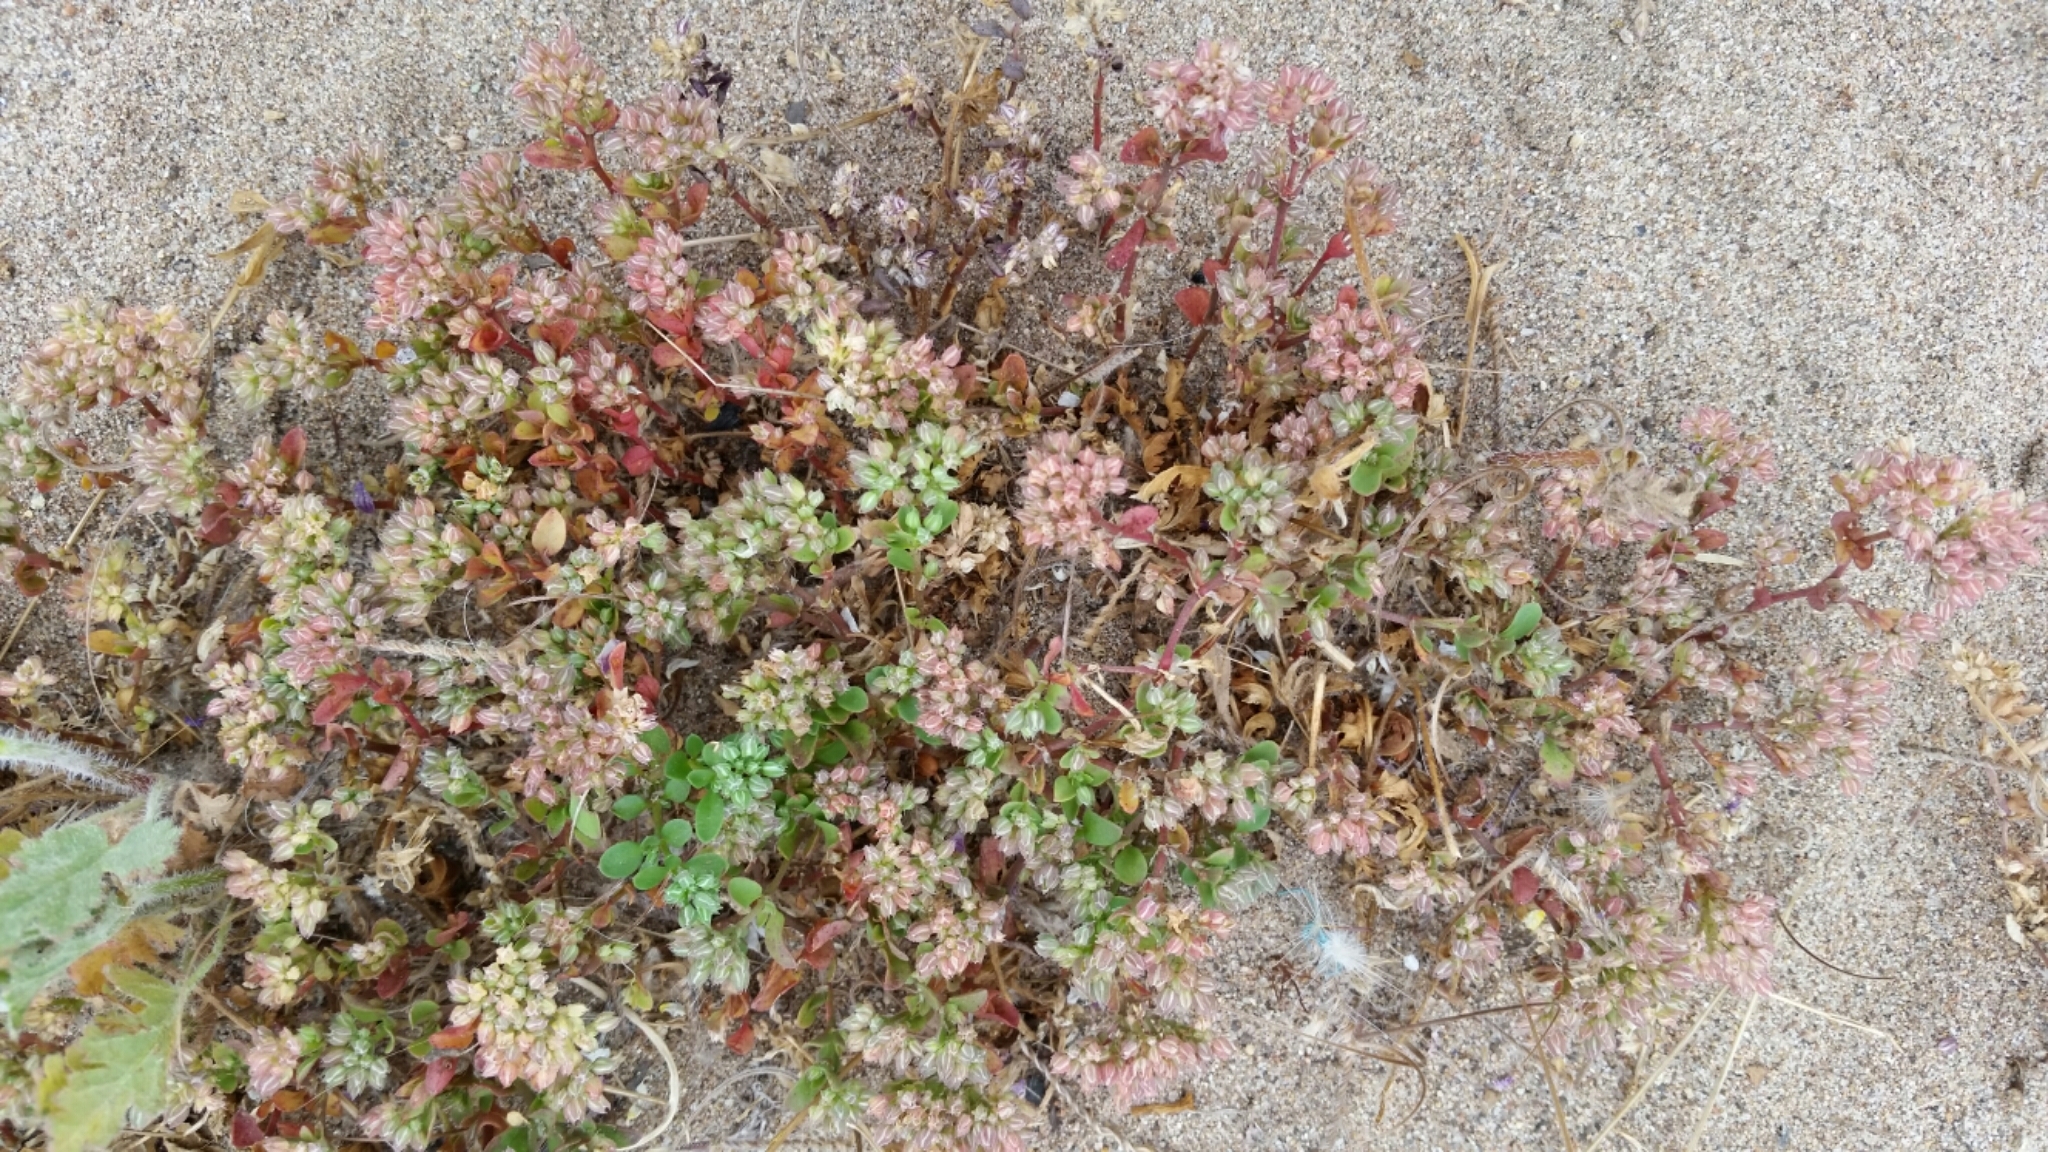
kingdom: Plantae
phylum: Tracheophyta
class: Magnoliopsida
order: Caryophyllales
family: Caryophyllaceae
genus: Polycarpon
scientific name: Polycarpon tetraphyllum
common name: Four-leaved all-seed
